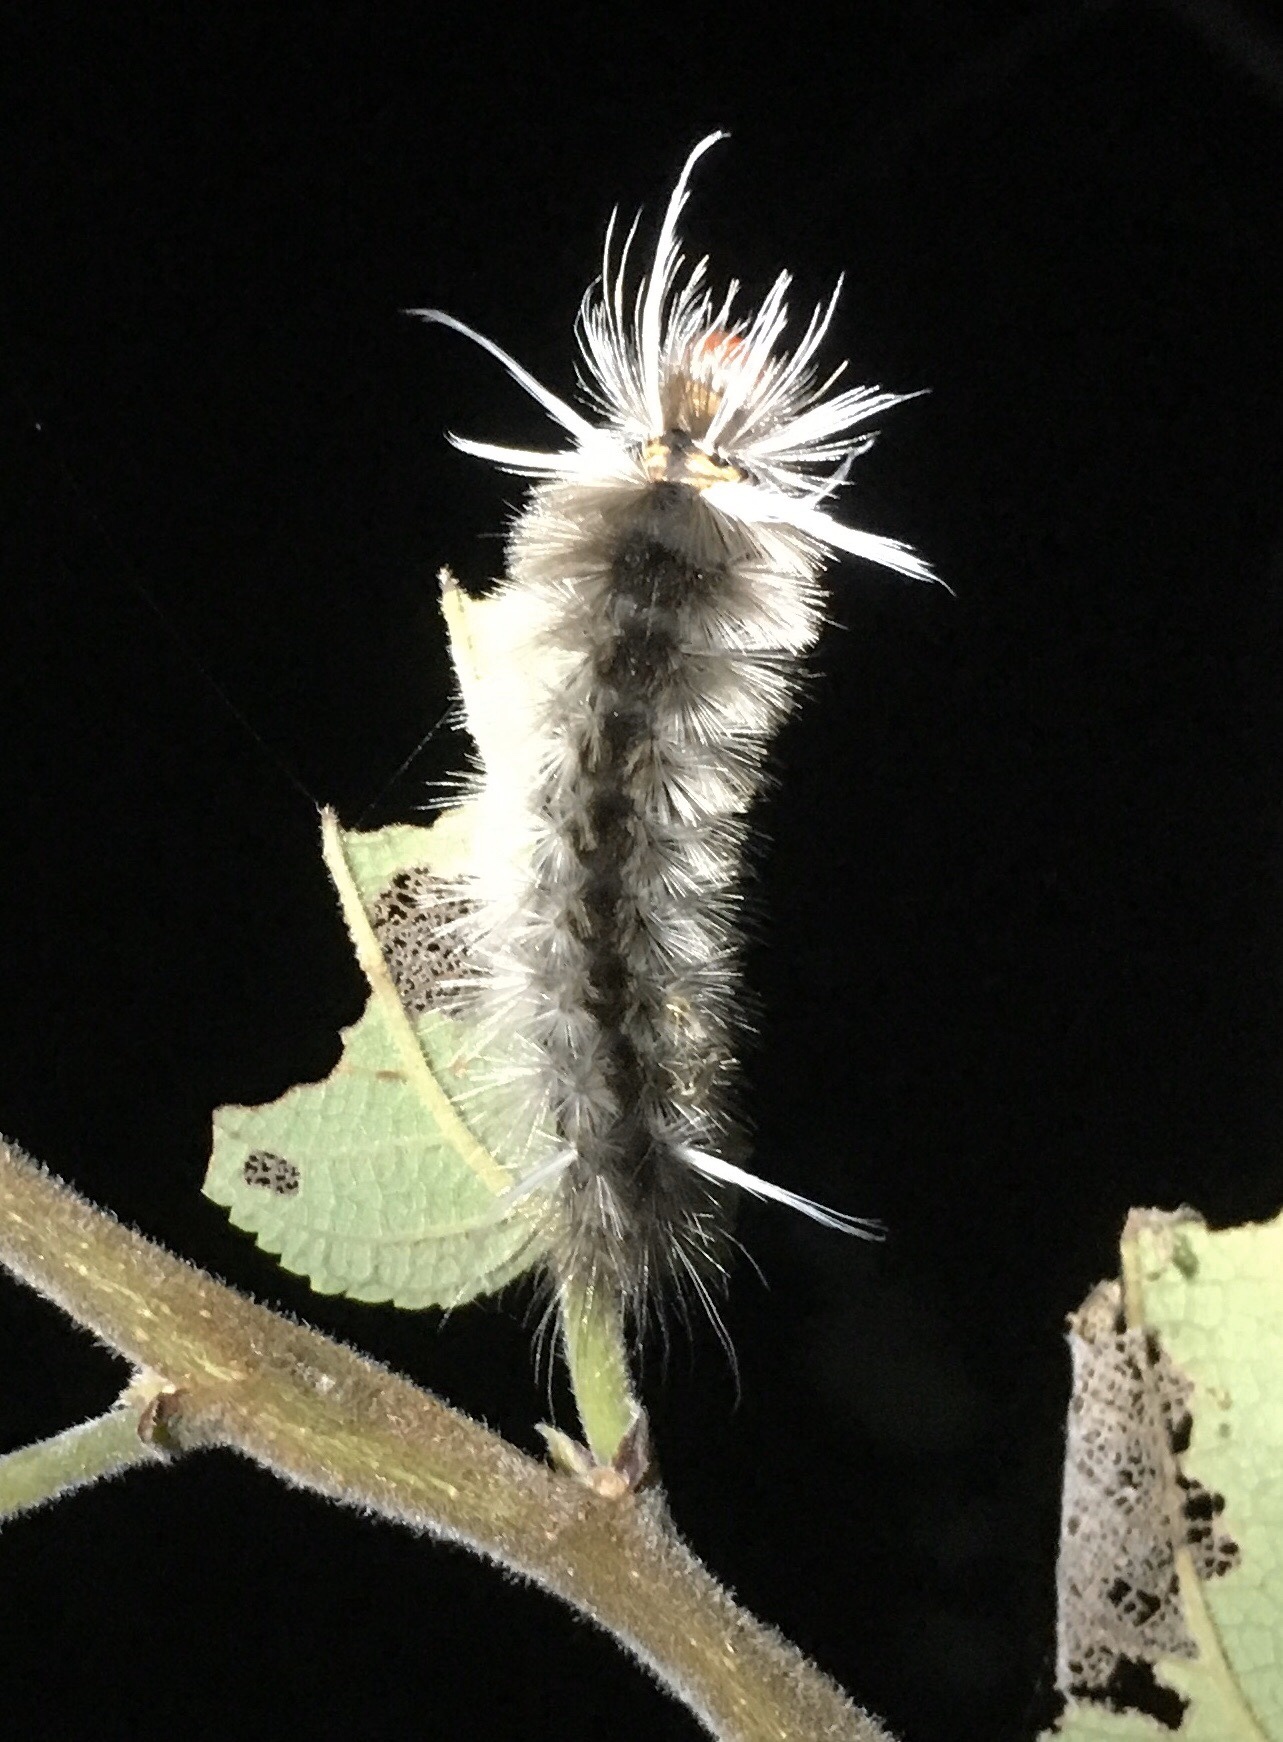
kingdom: Animalia
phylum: Arthropoda
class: Insecta
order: Lepidoptera
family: Erebidae
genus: Halysidota
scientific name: Halysidota cinctipes
